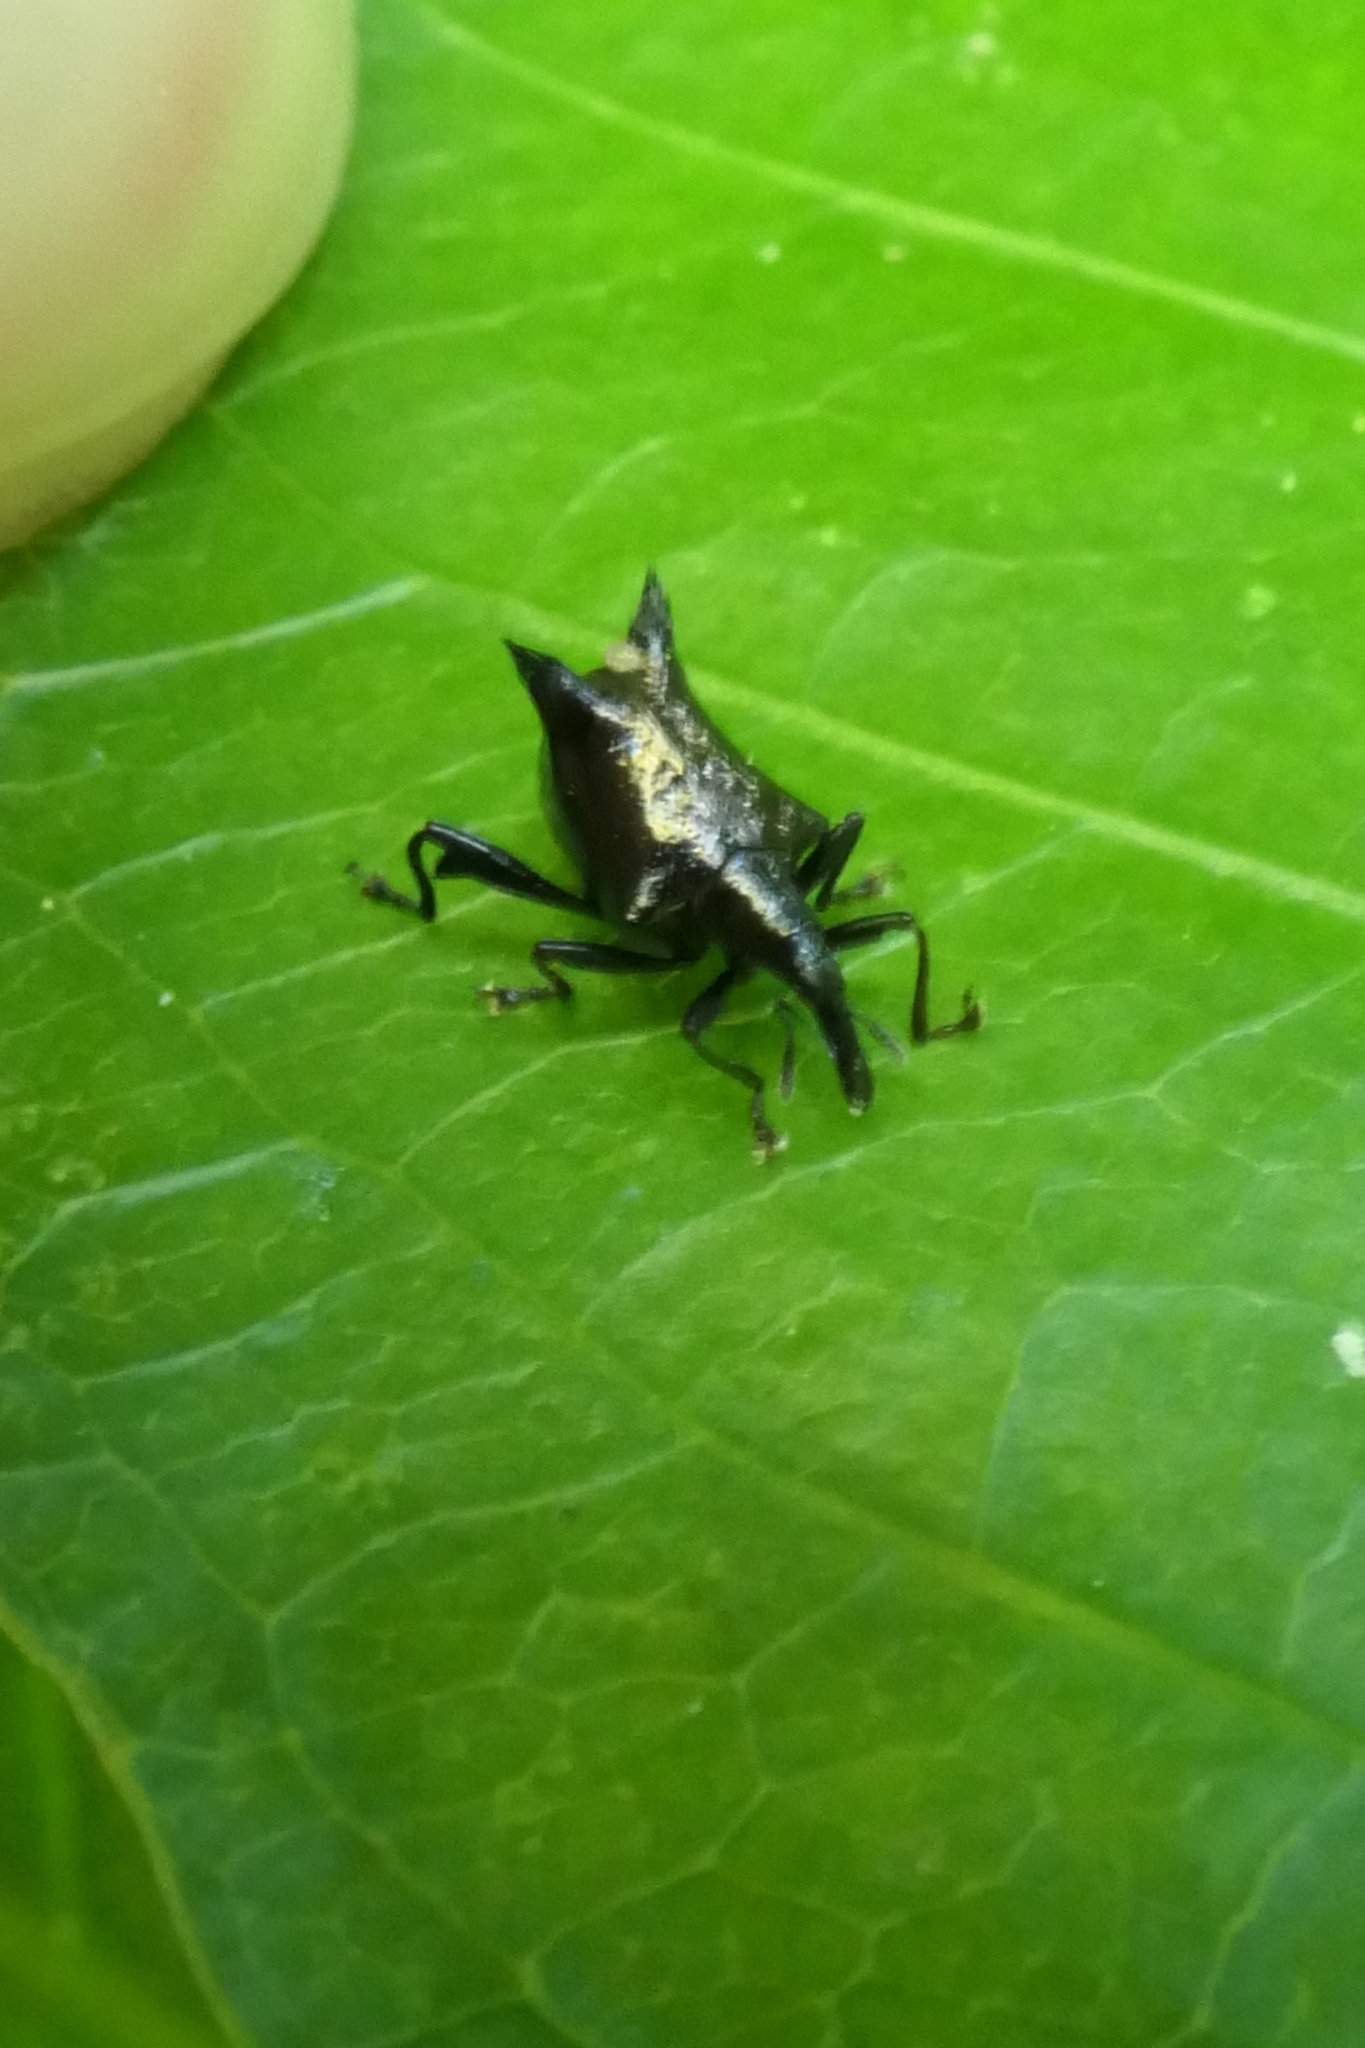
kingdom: Animalia
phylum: Arthropoda
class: Insecta
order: Coleoptera
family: Curculionidae
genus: Scolopterus
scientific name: Scolopterus penicillatus
